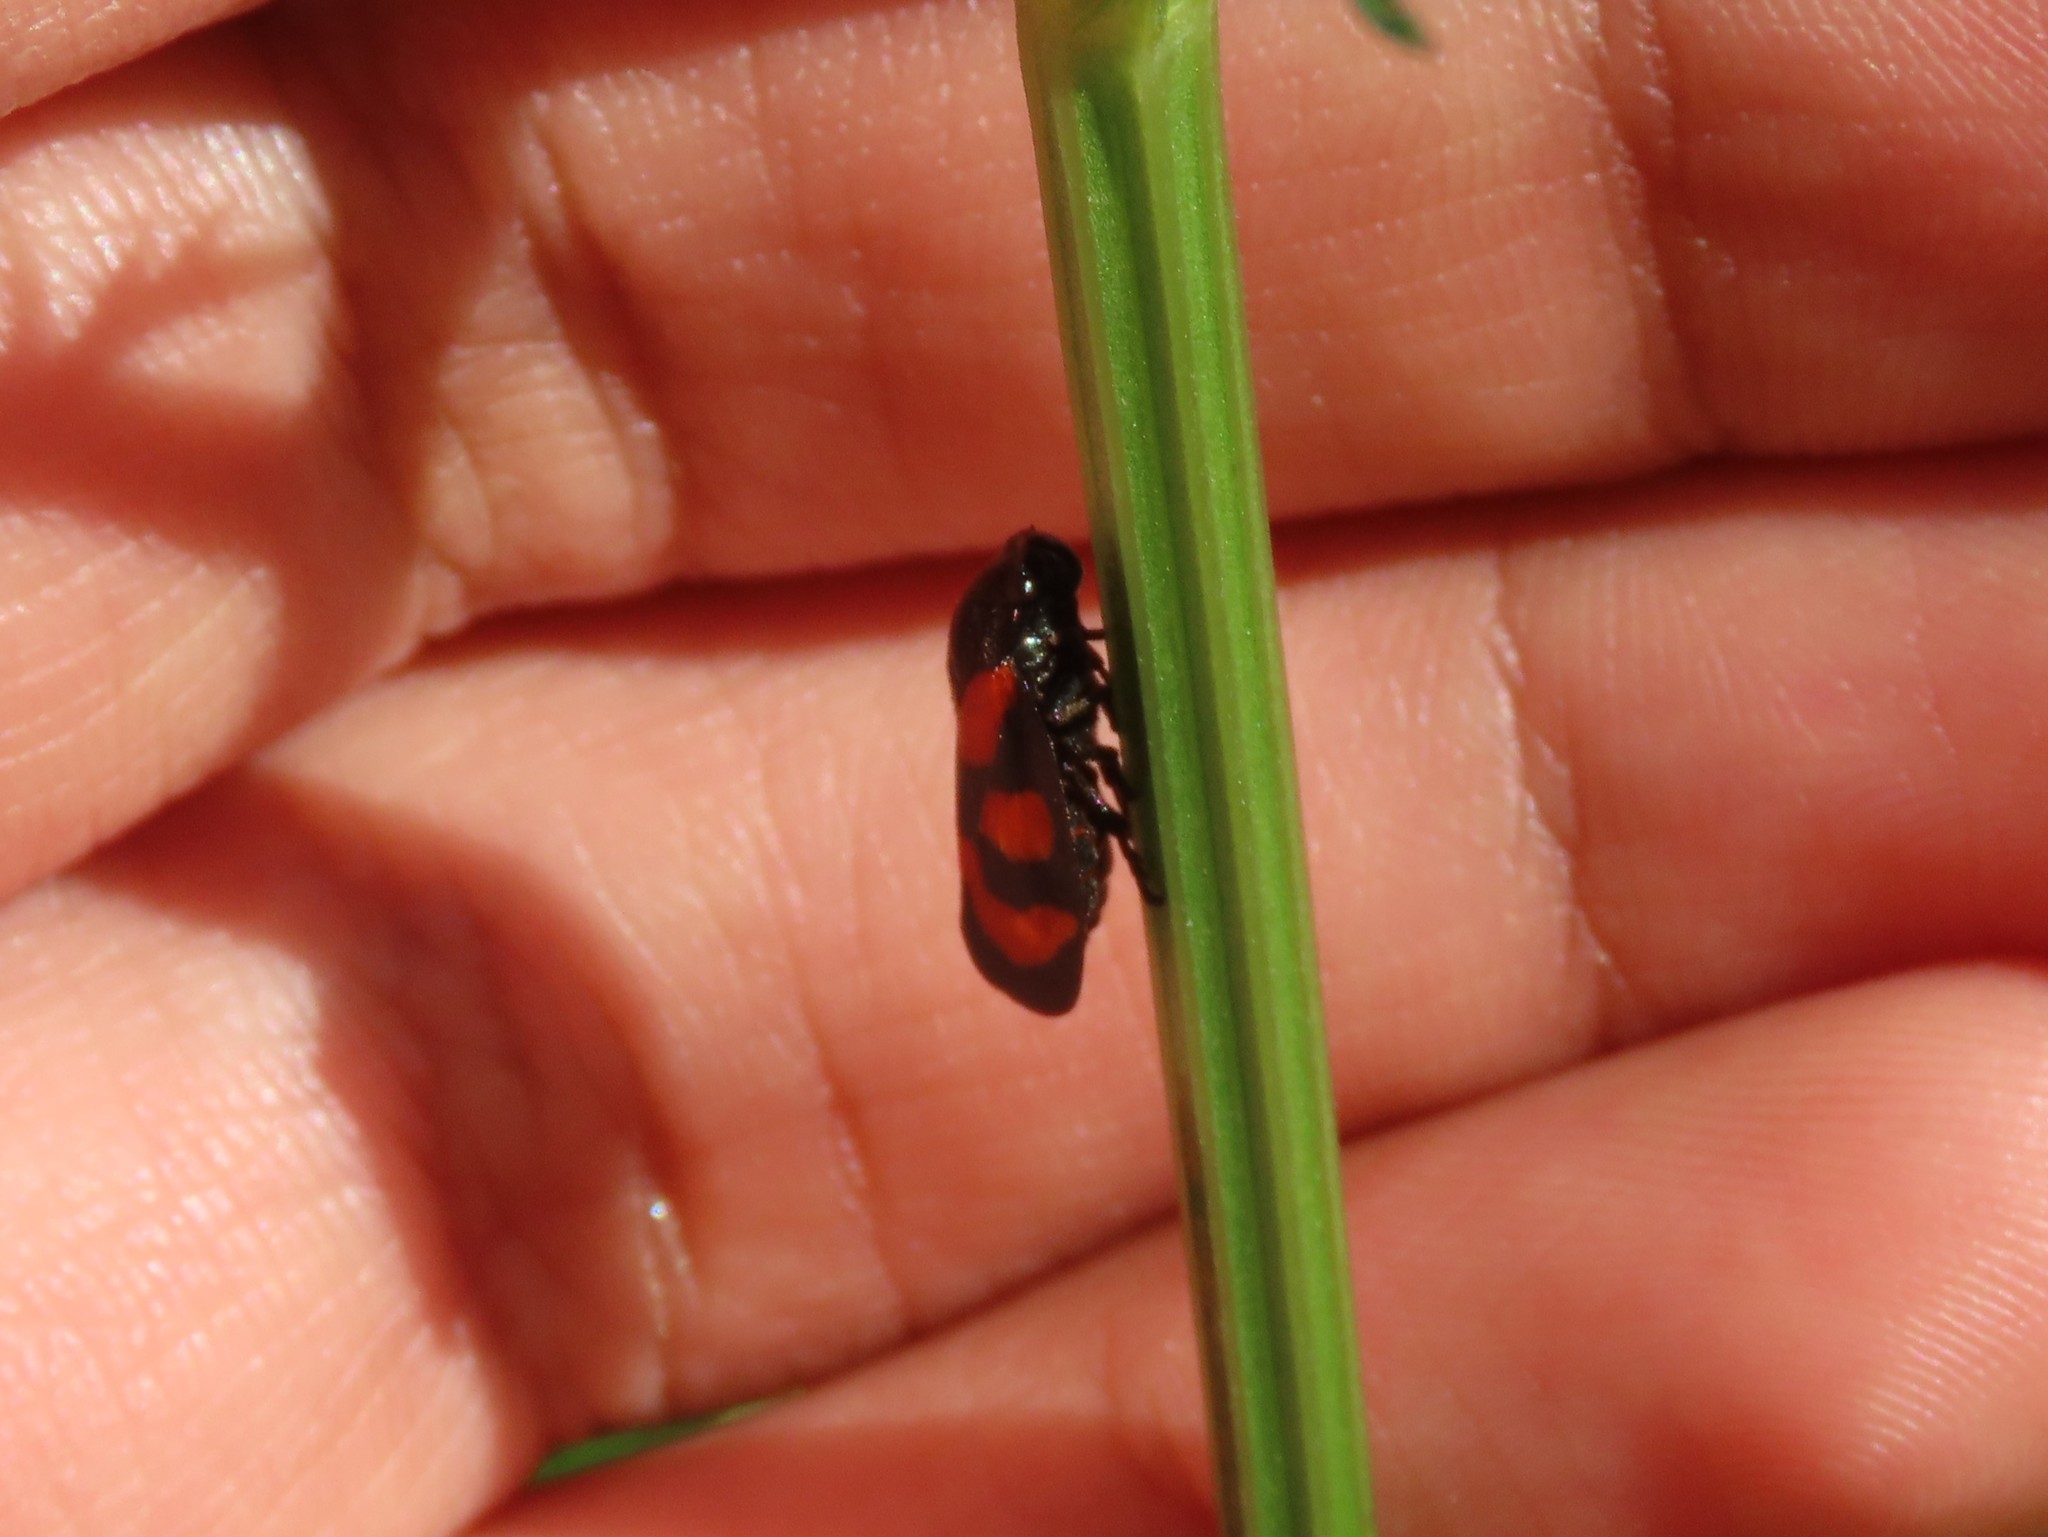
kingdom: Animalia
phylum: Arthropoda
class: Insecta
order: Hemiptera
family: Cercopidae
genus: Cercopis
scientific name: Cercopis vulnerata
